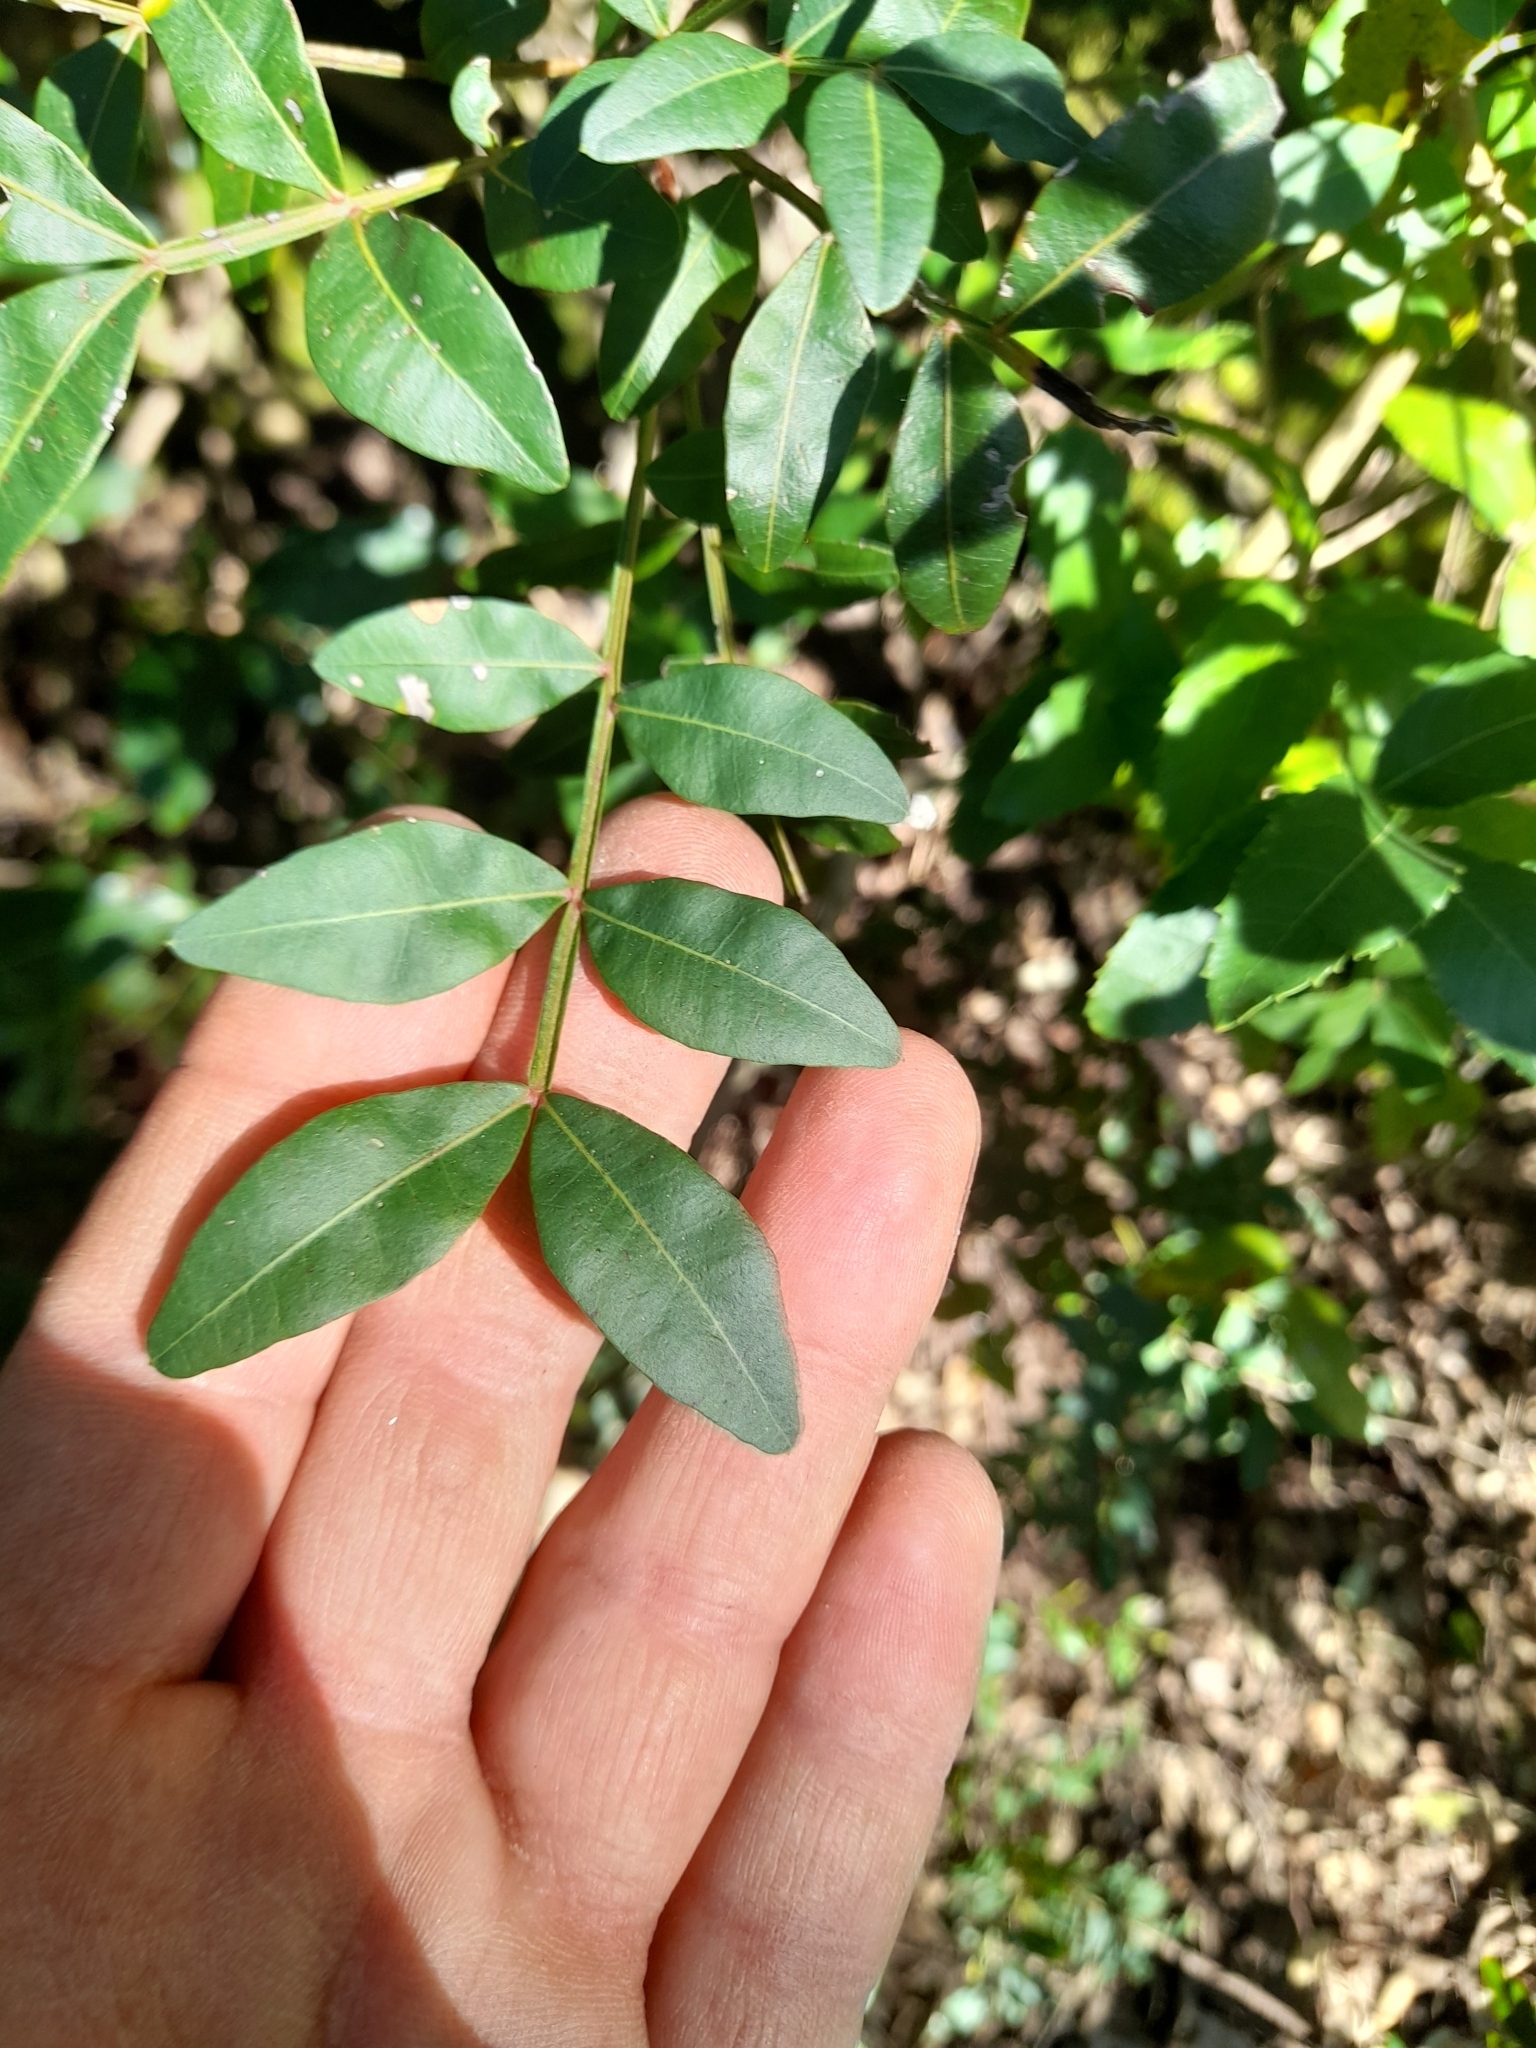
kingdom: Plantae
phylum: Tracheophyta
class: Magnoliopsida
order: Sapindales
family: Anacardiaceae
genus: Pistacia
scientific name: Pistacia lentiscus
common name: Lentisk
